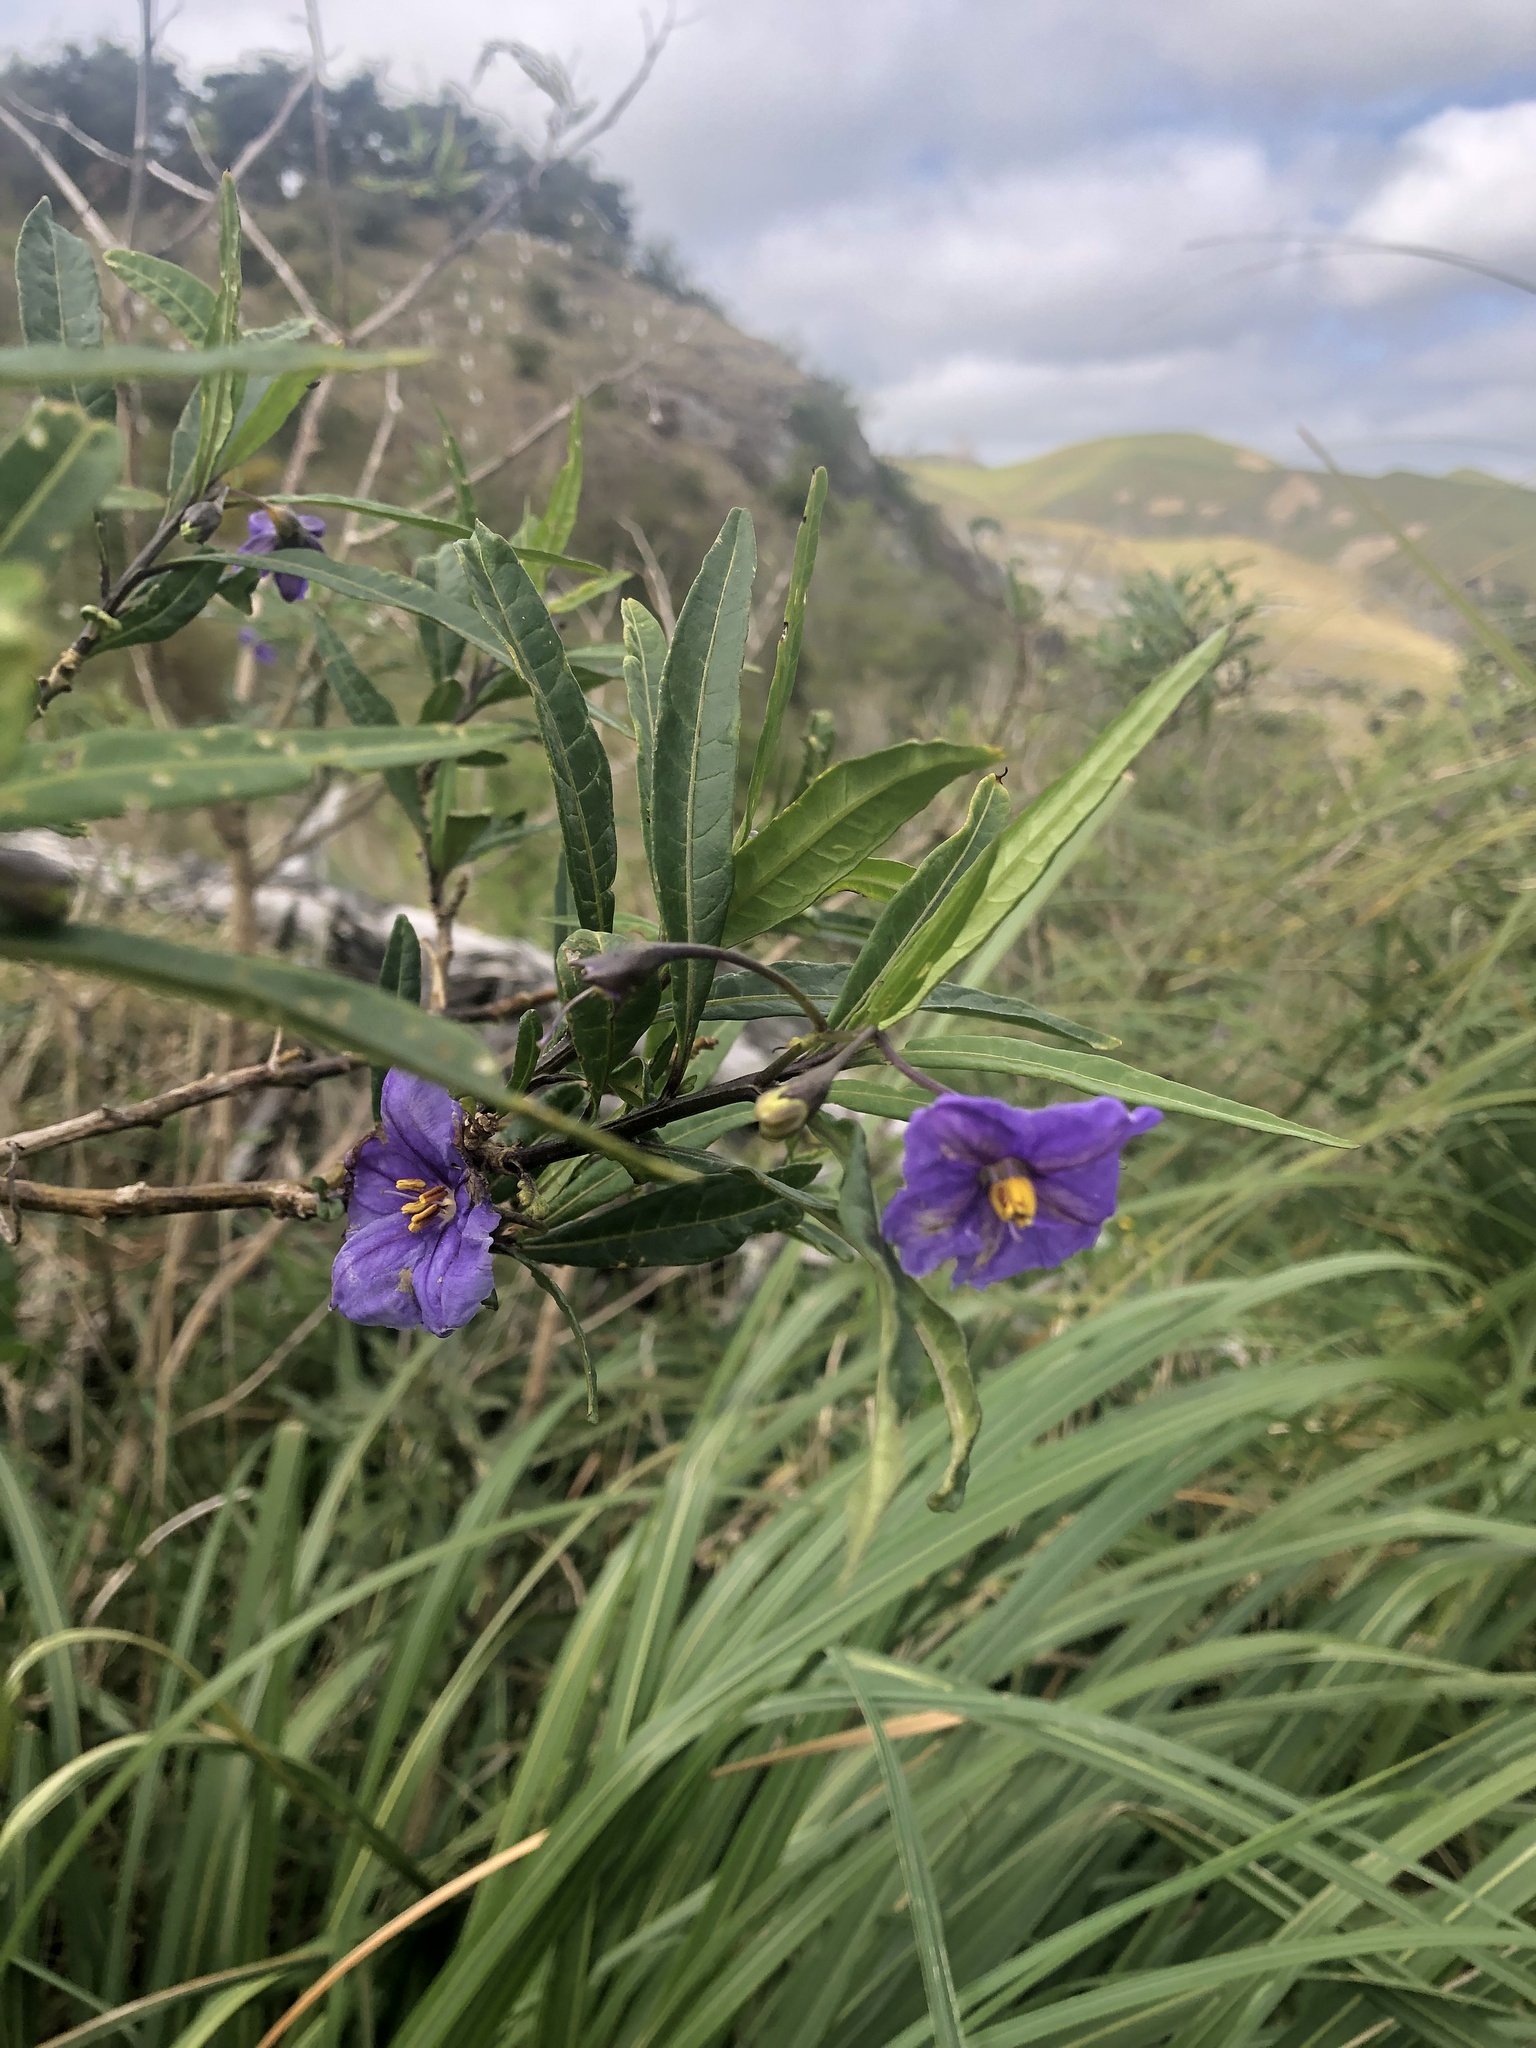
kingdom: Plantae
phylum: Tracheophyta
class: Magnoliopsida
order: Solanales
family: Solanaceae
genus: Solanum
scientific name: Solanum laciniatum
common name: Kangaroo-apple
